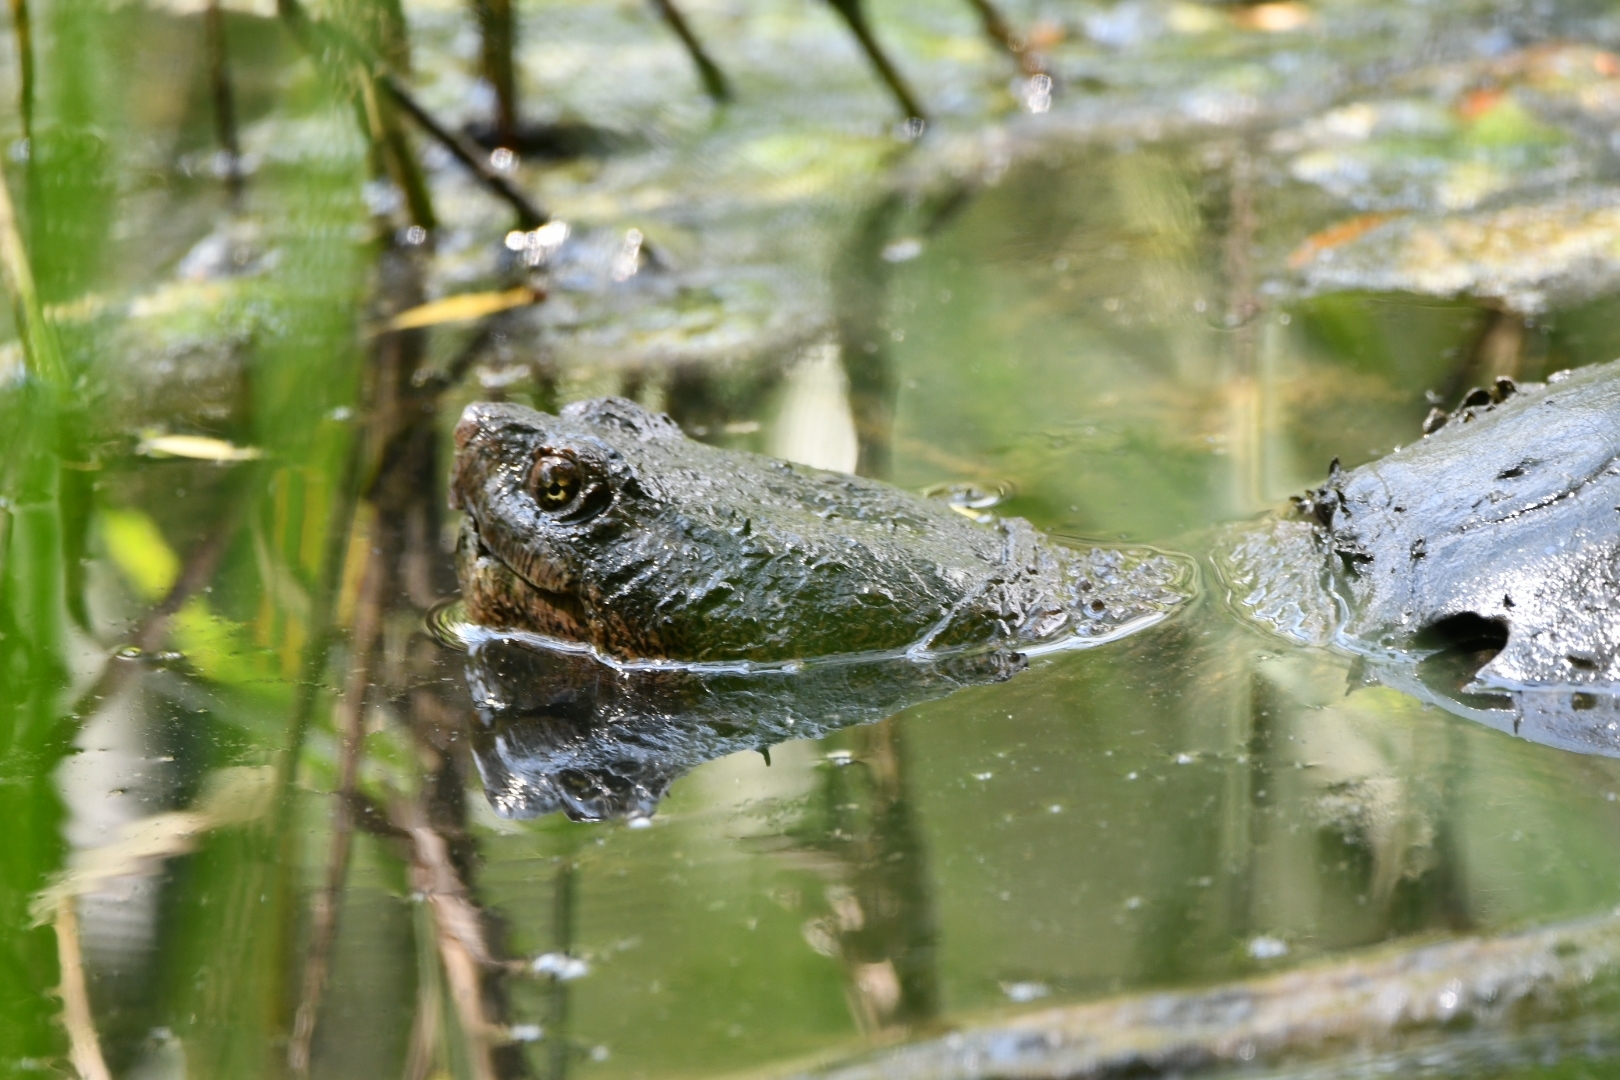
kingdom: Animalia
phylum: Chordata
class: Testudines
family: Chelydridae
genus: Chelydra
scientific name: Chelydra serpentina
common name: Common snapping turtle
